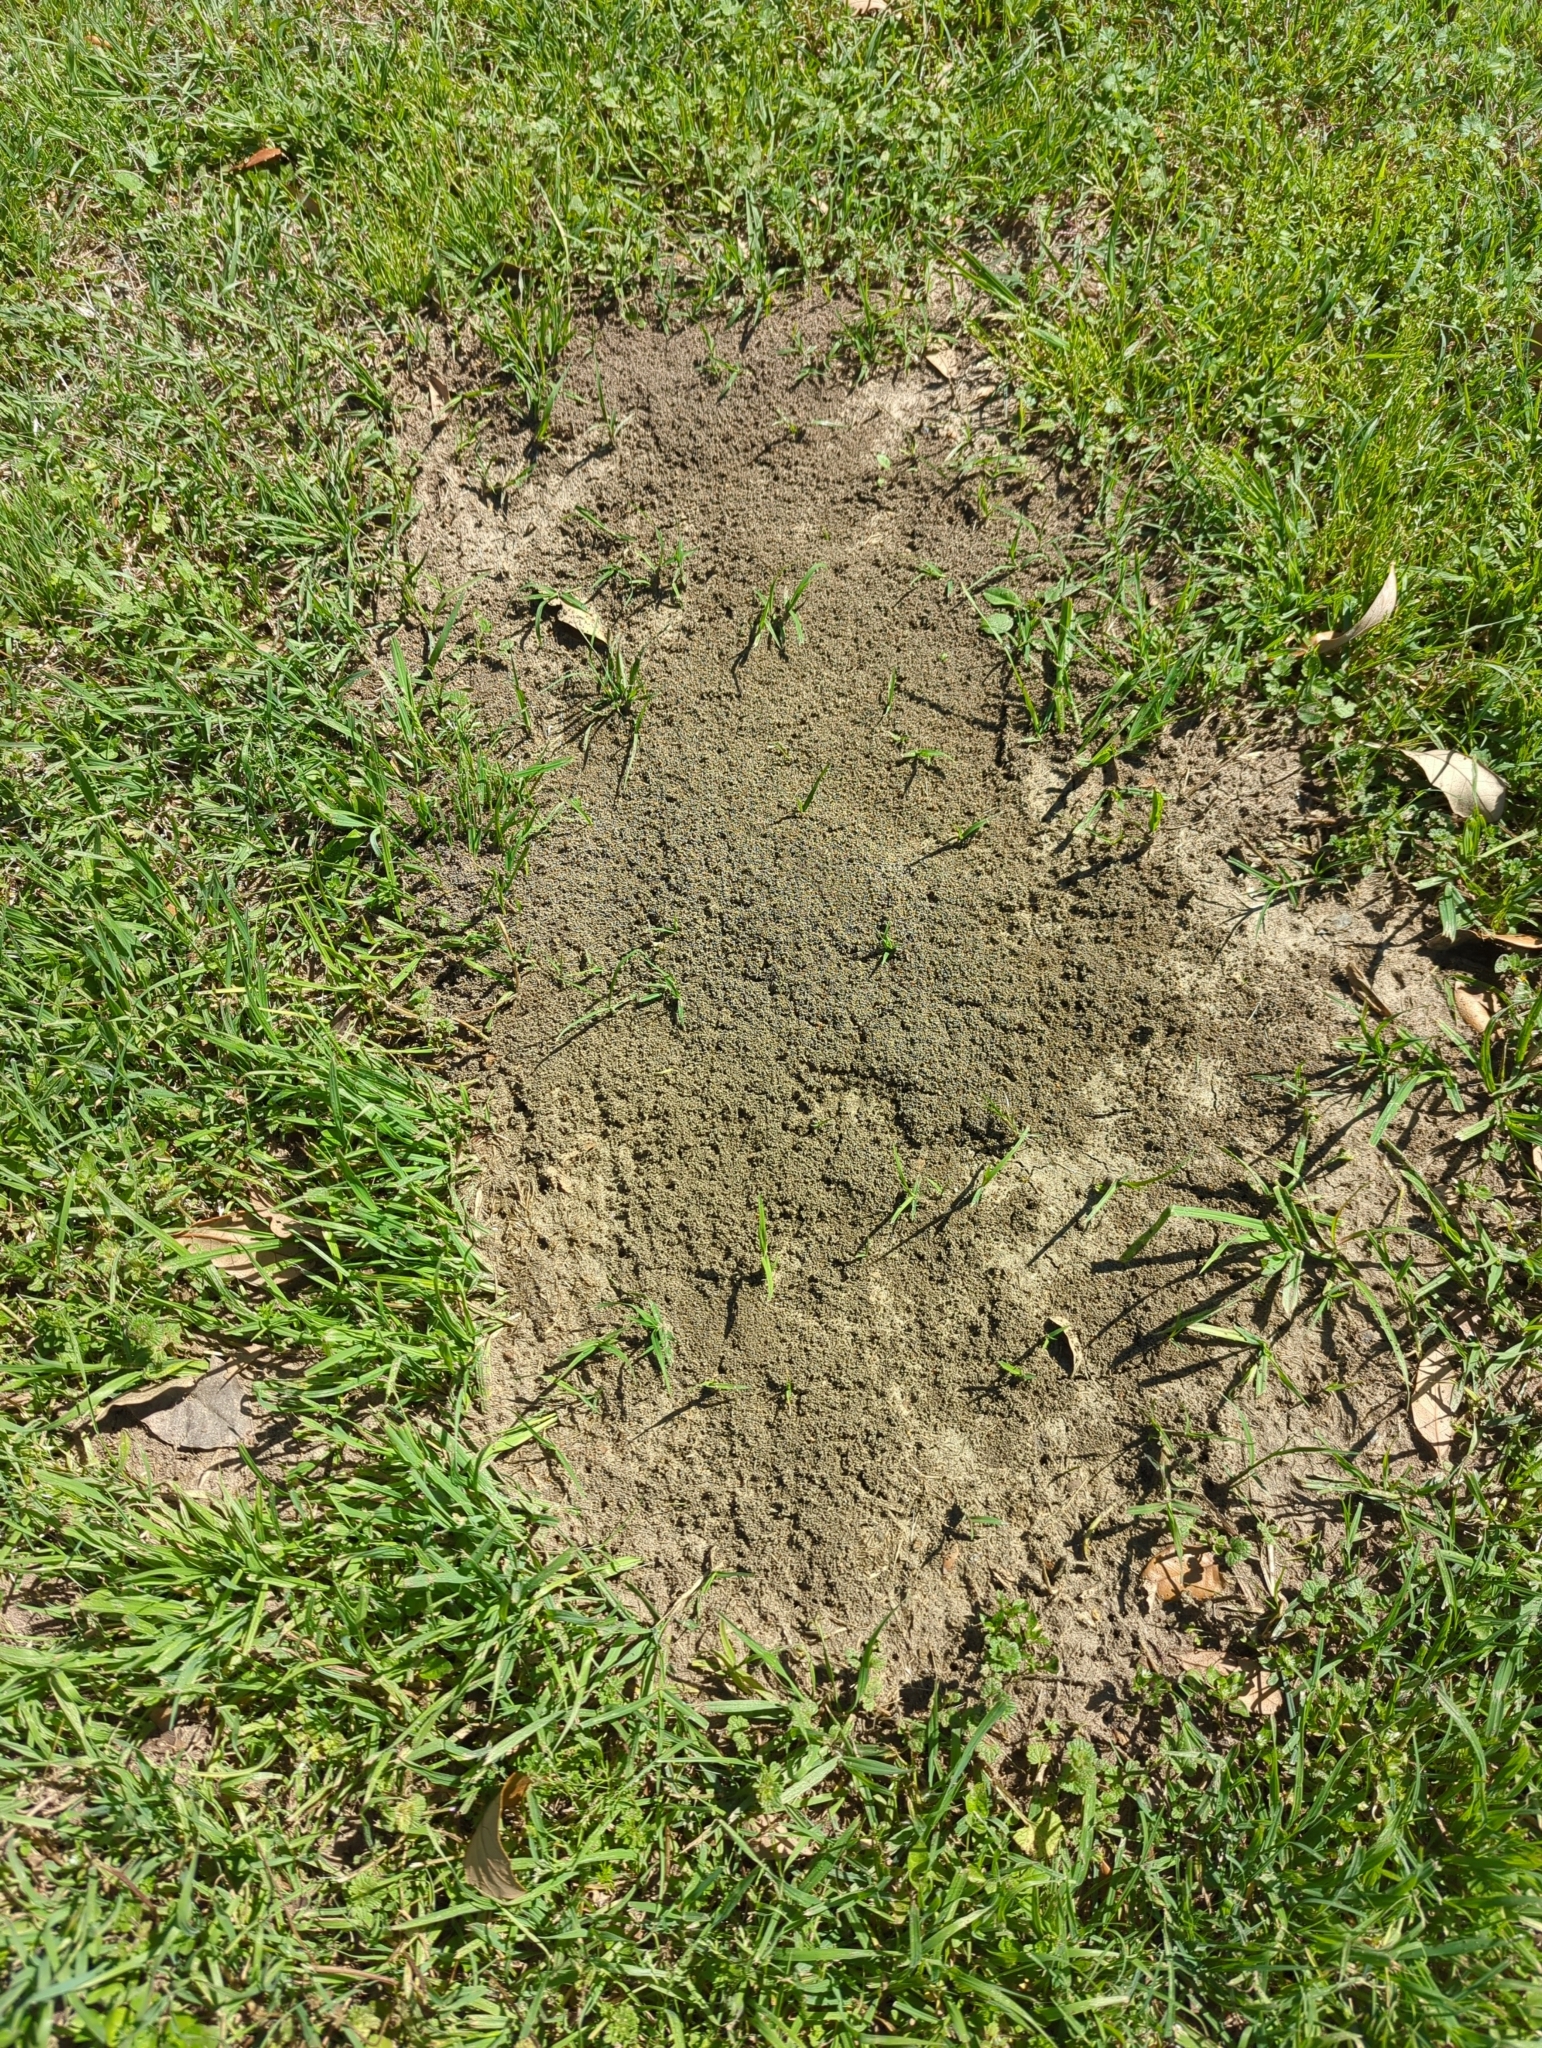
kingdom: Animalia
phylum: Arthropoda
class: Insecta
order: Hymenoptera
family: Formicidae
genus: Solenopsis
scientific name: Solenopsis invicta
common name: Red imported fire ant
